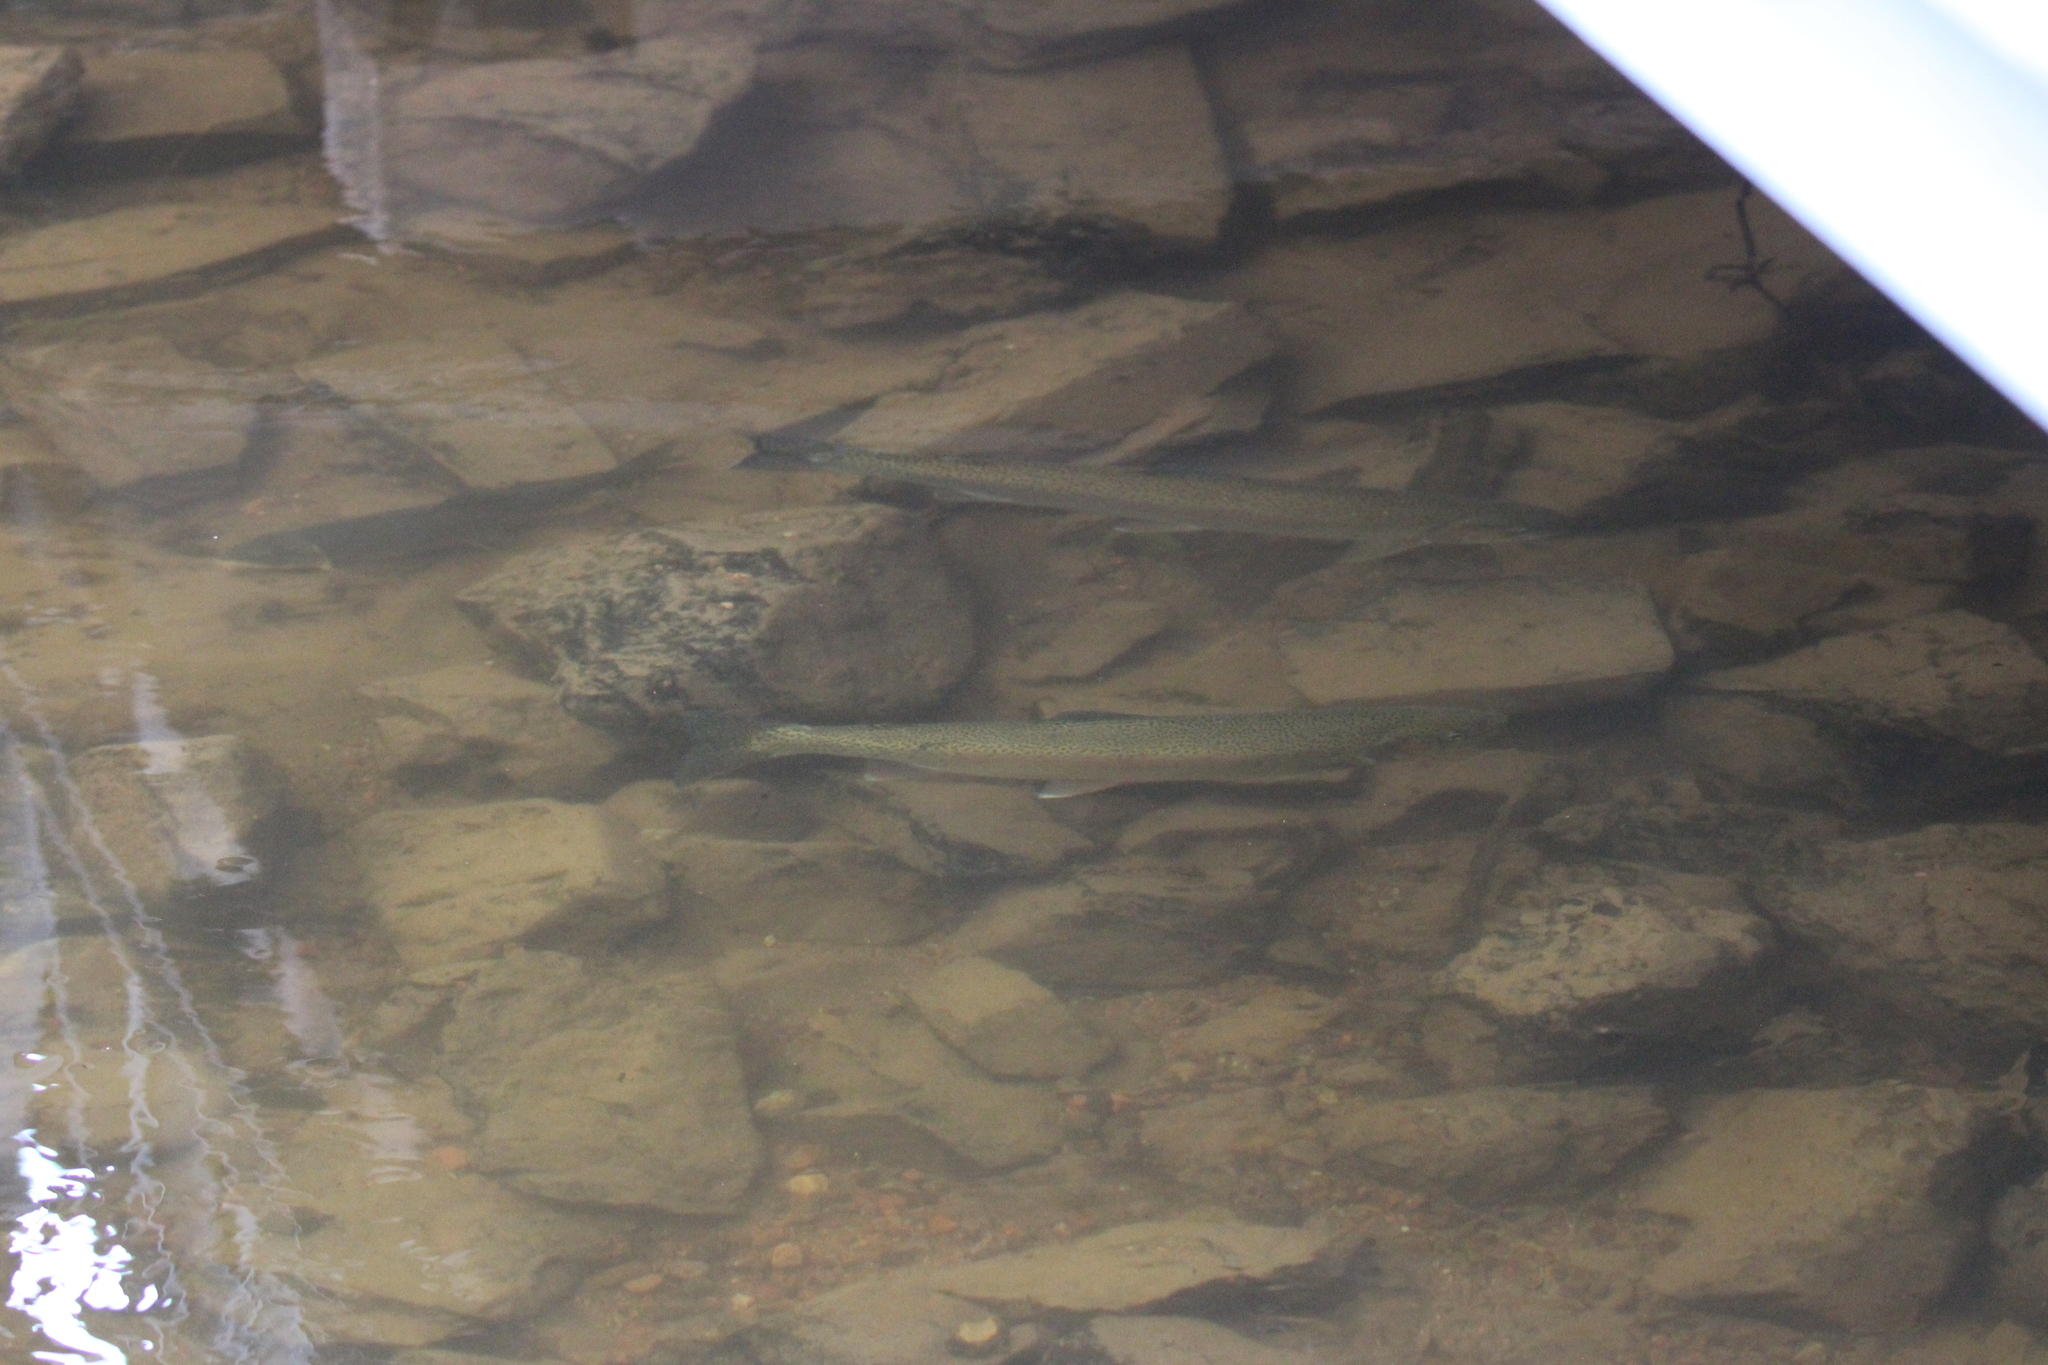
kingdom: Animalia
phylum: Chordata
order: Salmoniformes
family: Salmonidae
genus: Oncorhynchus
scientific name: Oncorhynchus mykiss
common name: Rainbow trout
